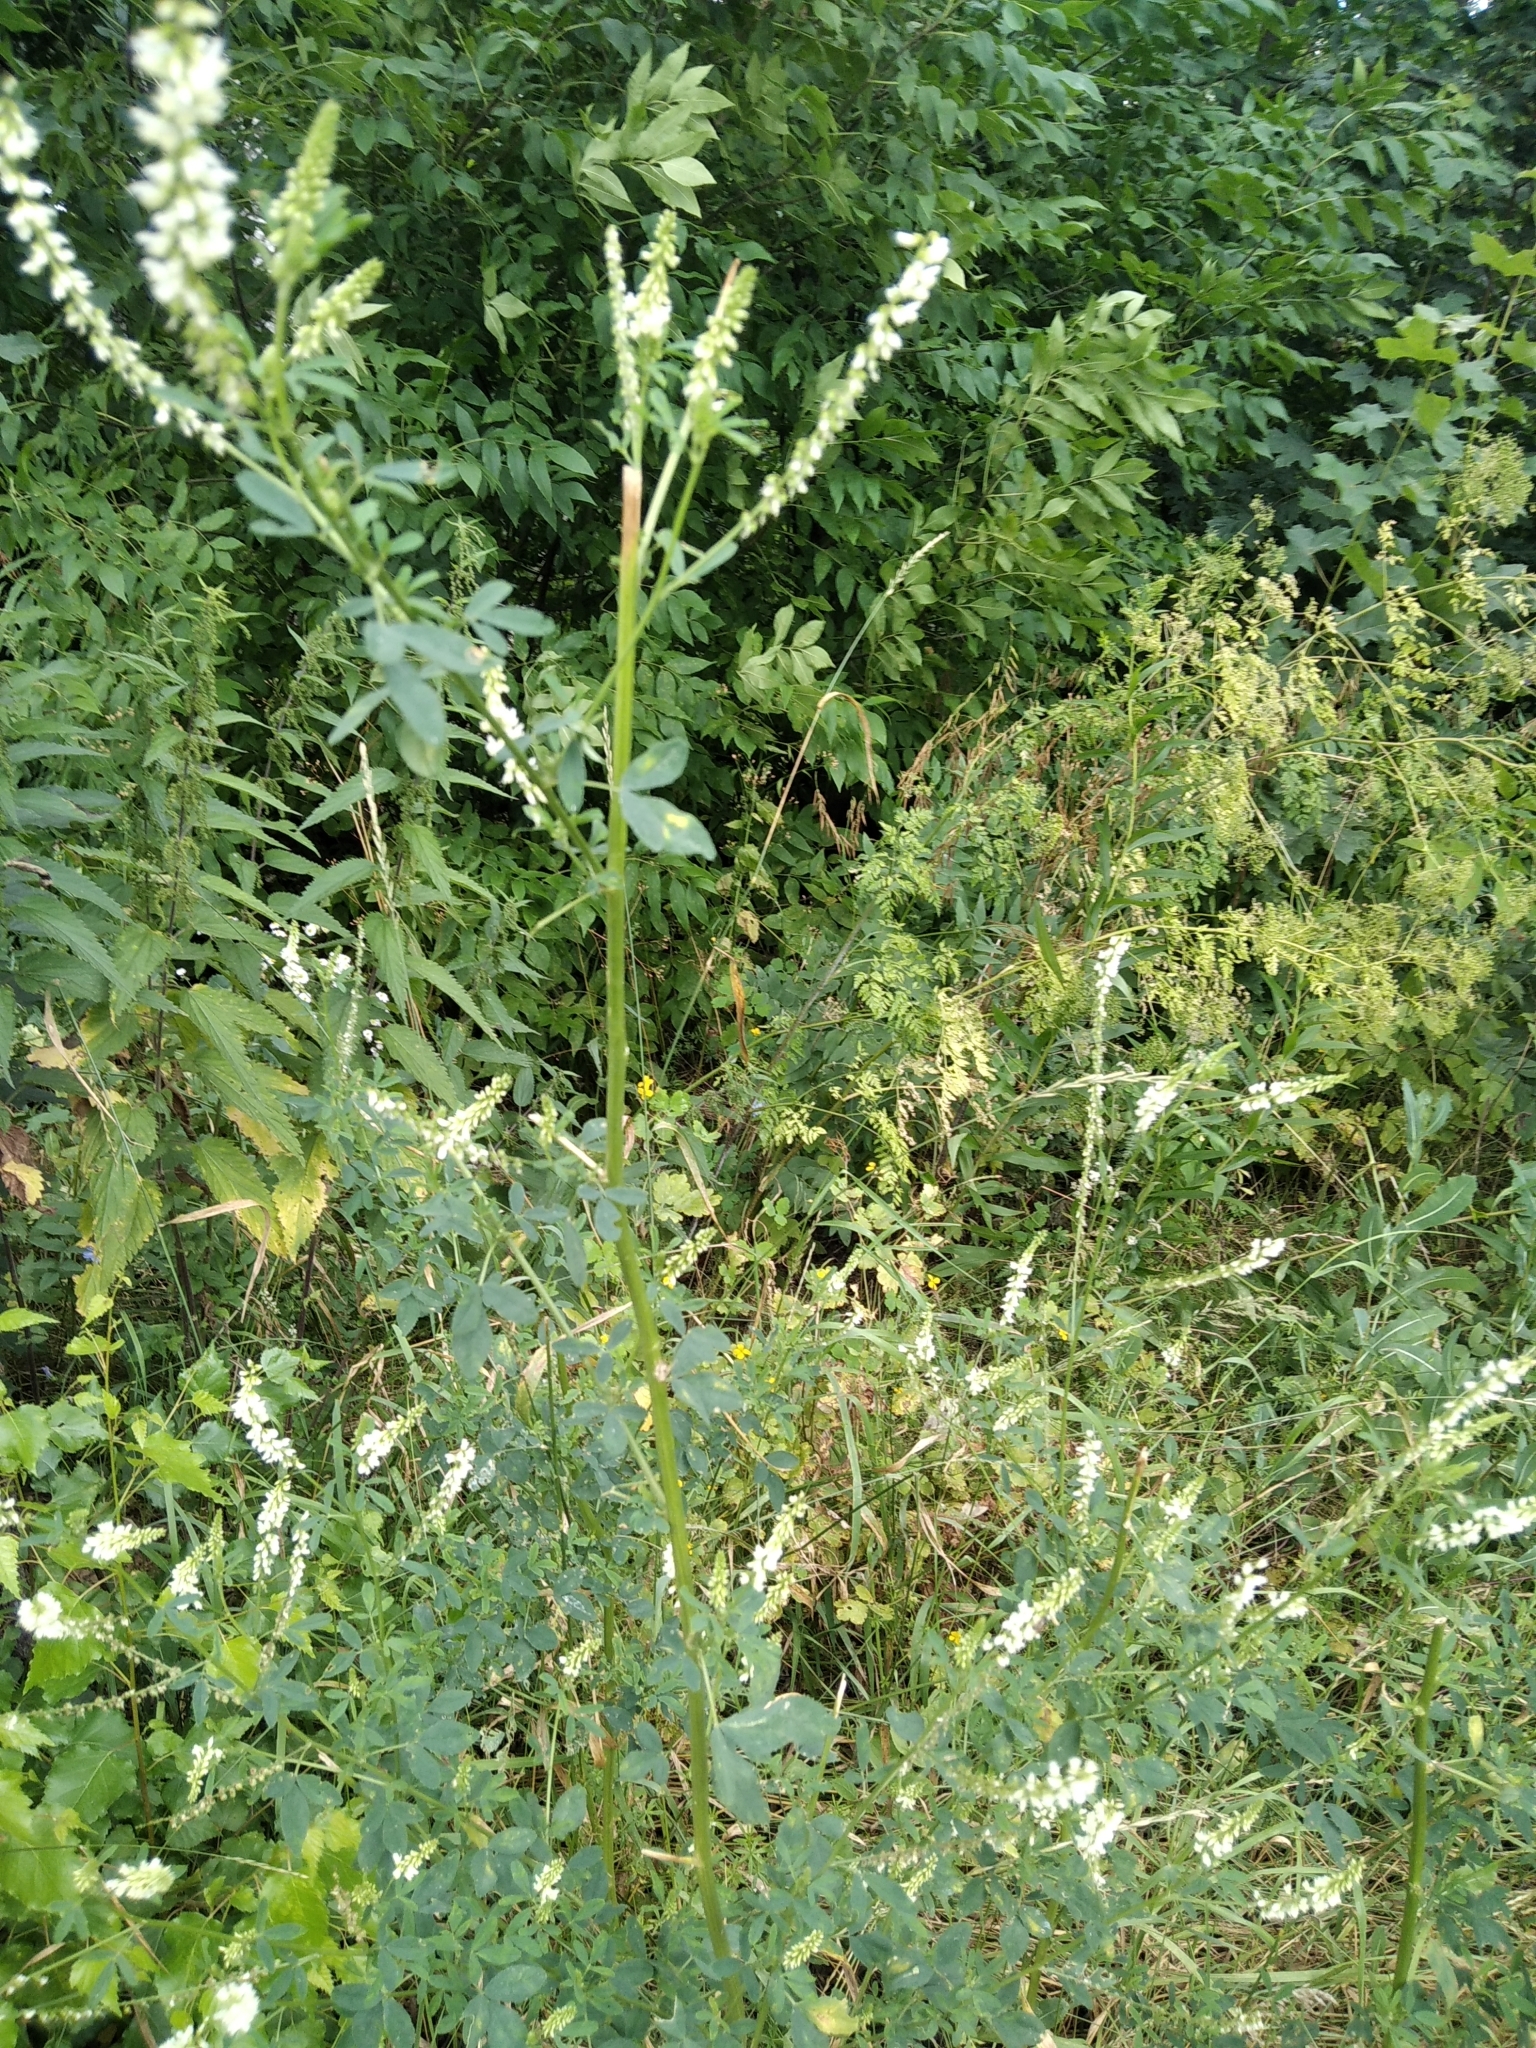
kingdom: Plantae
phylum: Tracheophyta
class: Magnoliopsida
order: Fabales
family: Fabaceae
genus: Melilotus
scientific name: Melilotus albus
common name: White melilot
